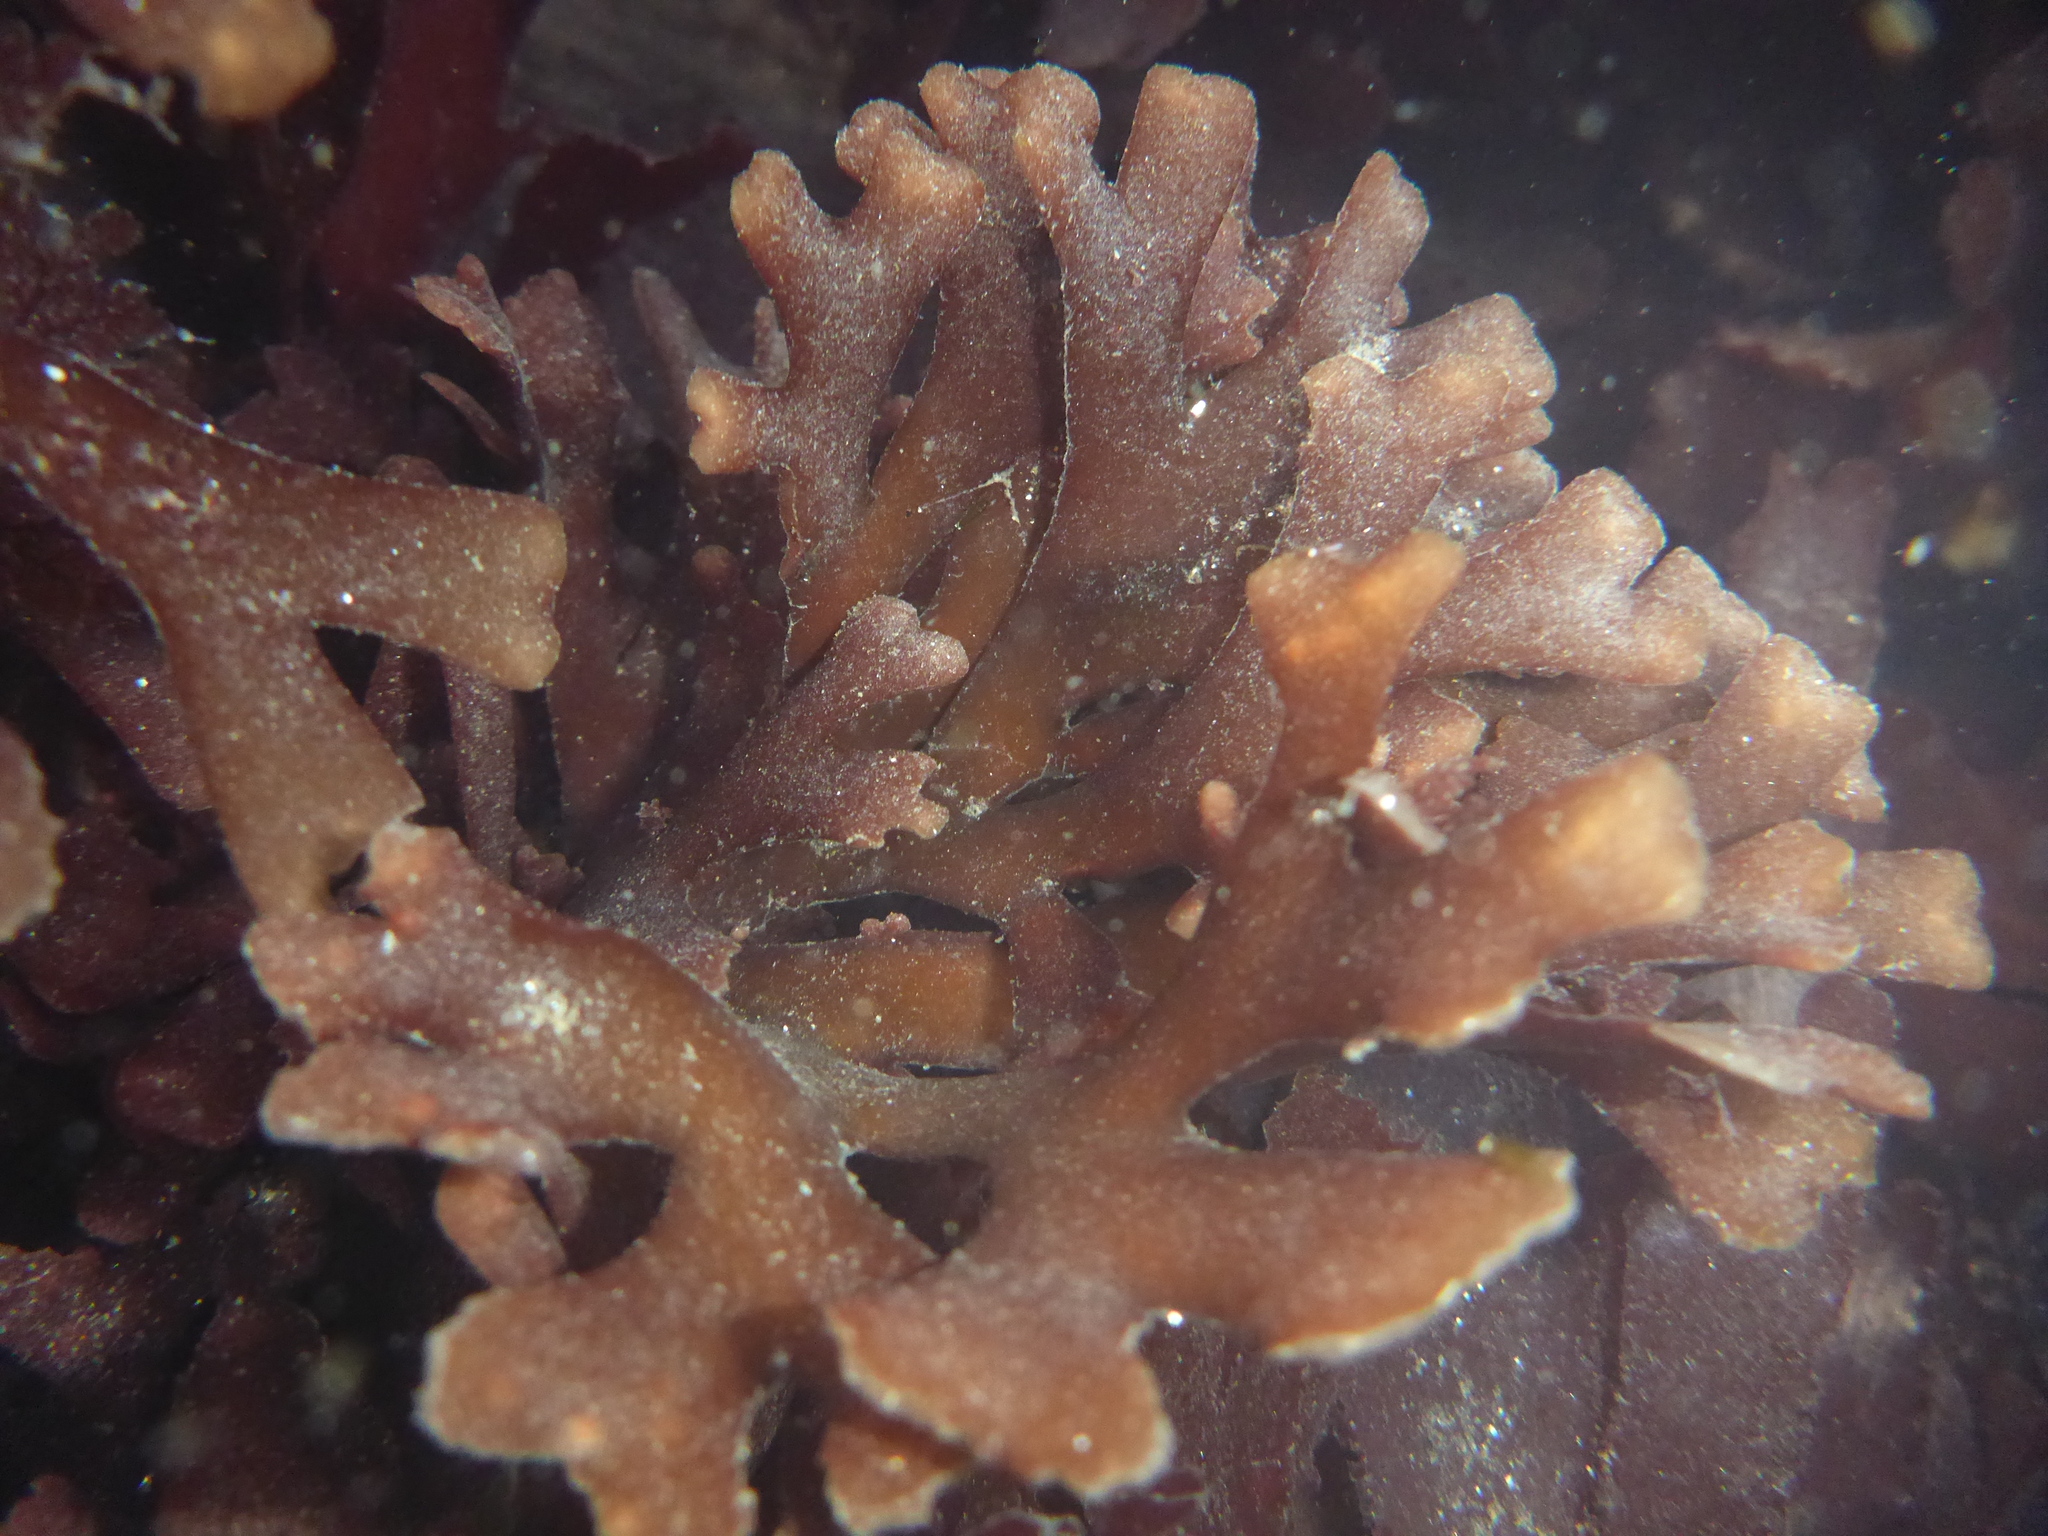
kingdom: Plantae
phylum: Rhodophyta
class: Florideophyceae
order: Ceramiales
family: Rhodomelaceae
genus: Osmundea
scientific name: Osmundea spectabilis
